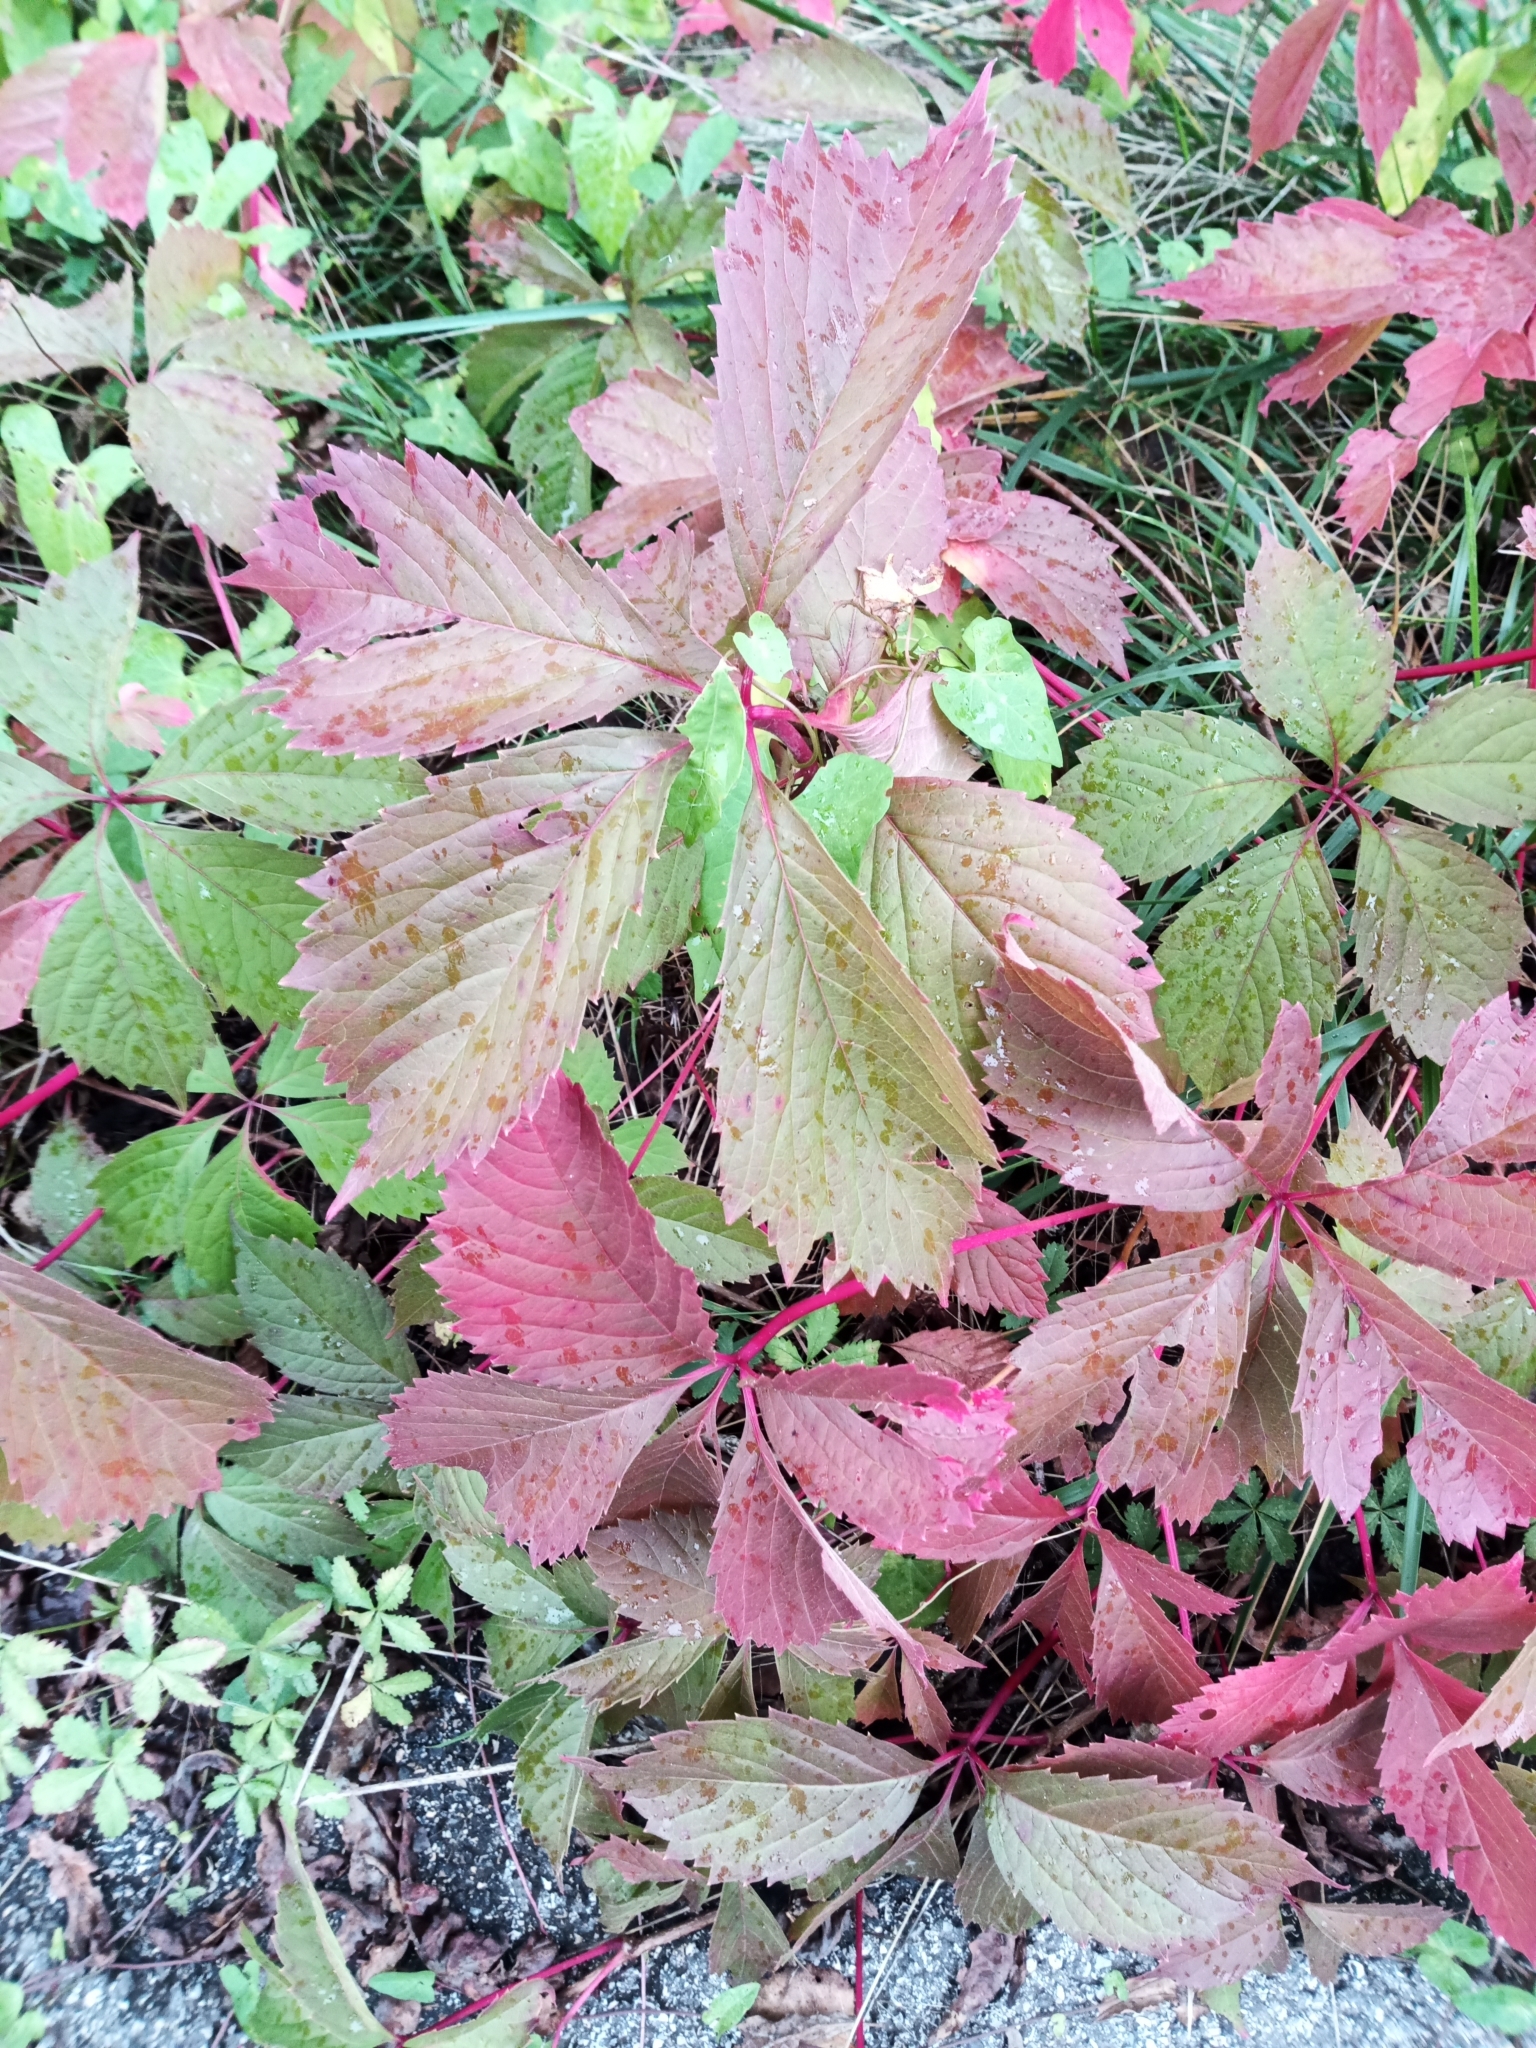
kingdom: Plantae
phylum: Tracheophyta
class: Magnoliopsida
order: Vitales
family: Vitaceae
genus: Parthenocissus
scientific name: Parthenocissus inserta
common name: False virginia-creeper
